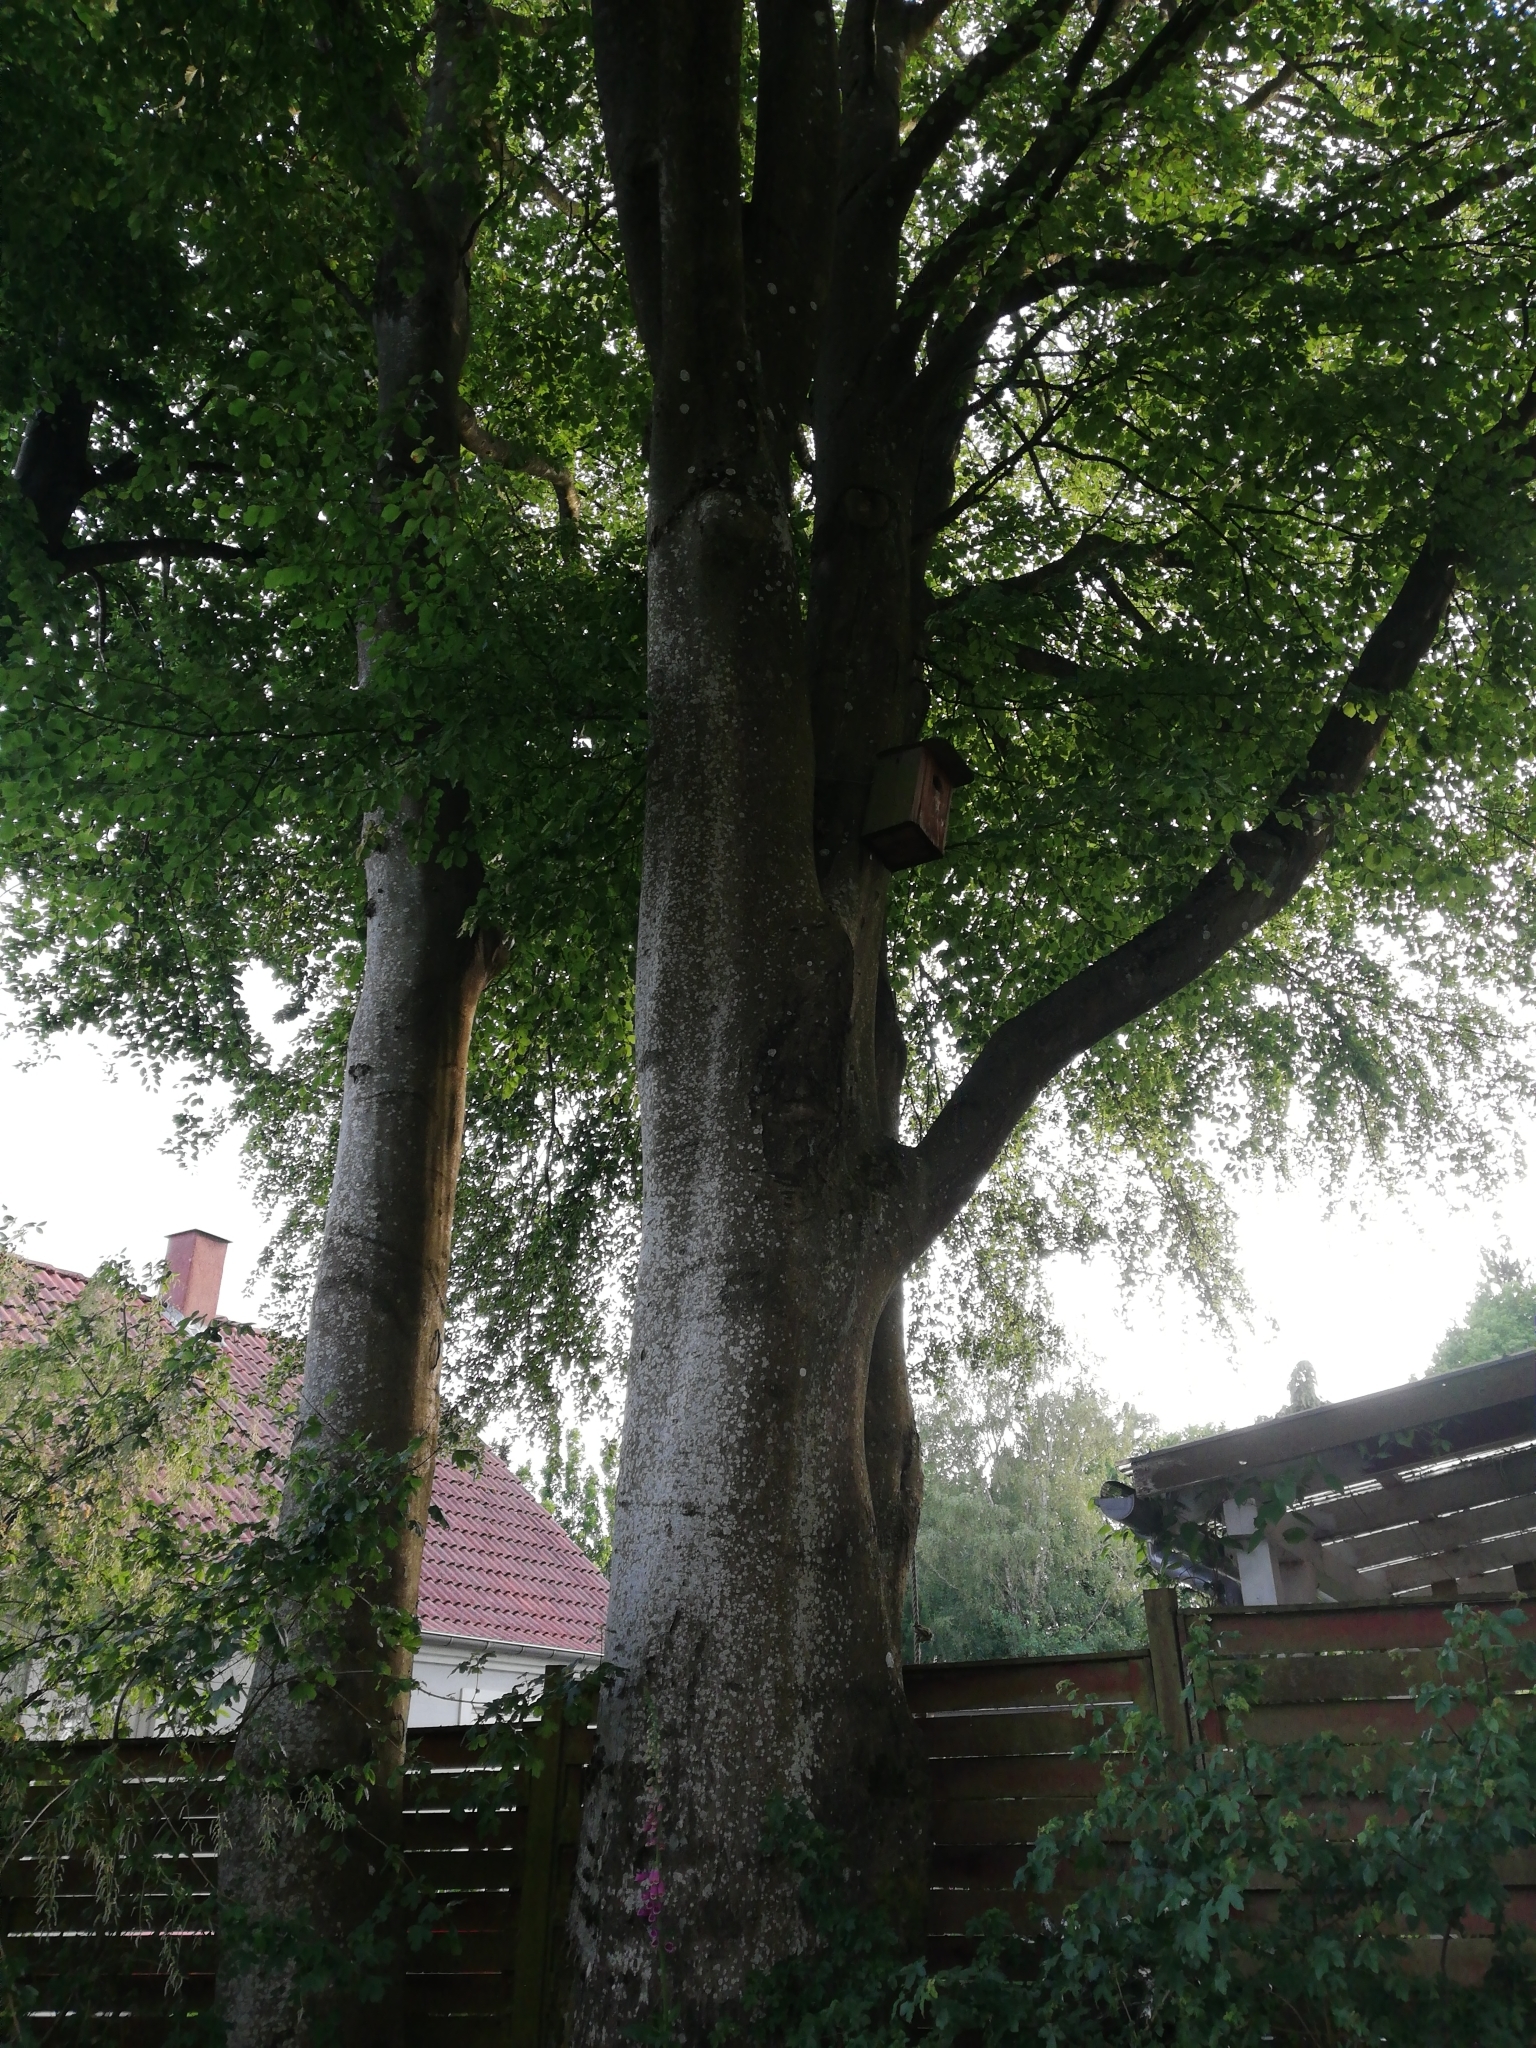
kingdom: Plantae
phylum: Tracheophyta
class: Magnoliopsida
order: Fagales
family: Fagaceae
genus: Fagus
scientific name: Fagus sylvatica
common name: Beech
